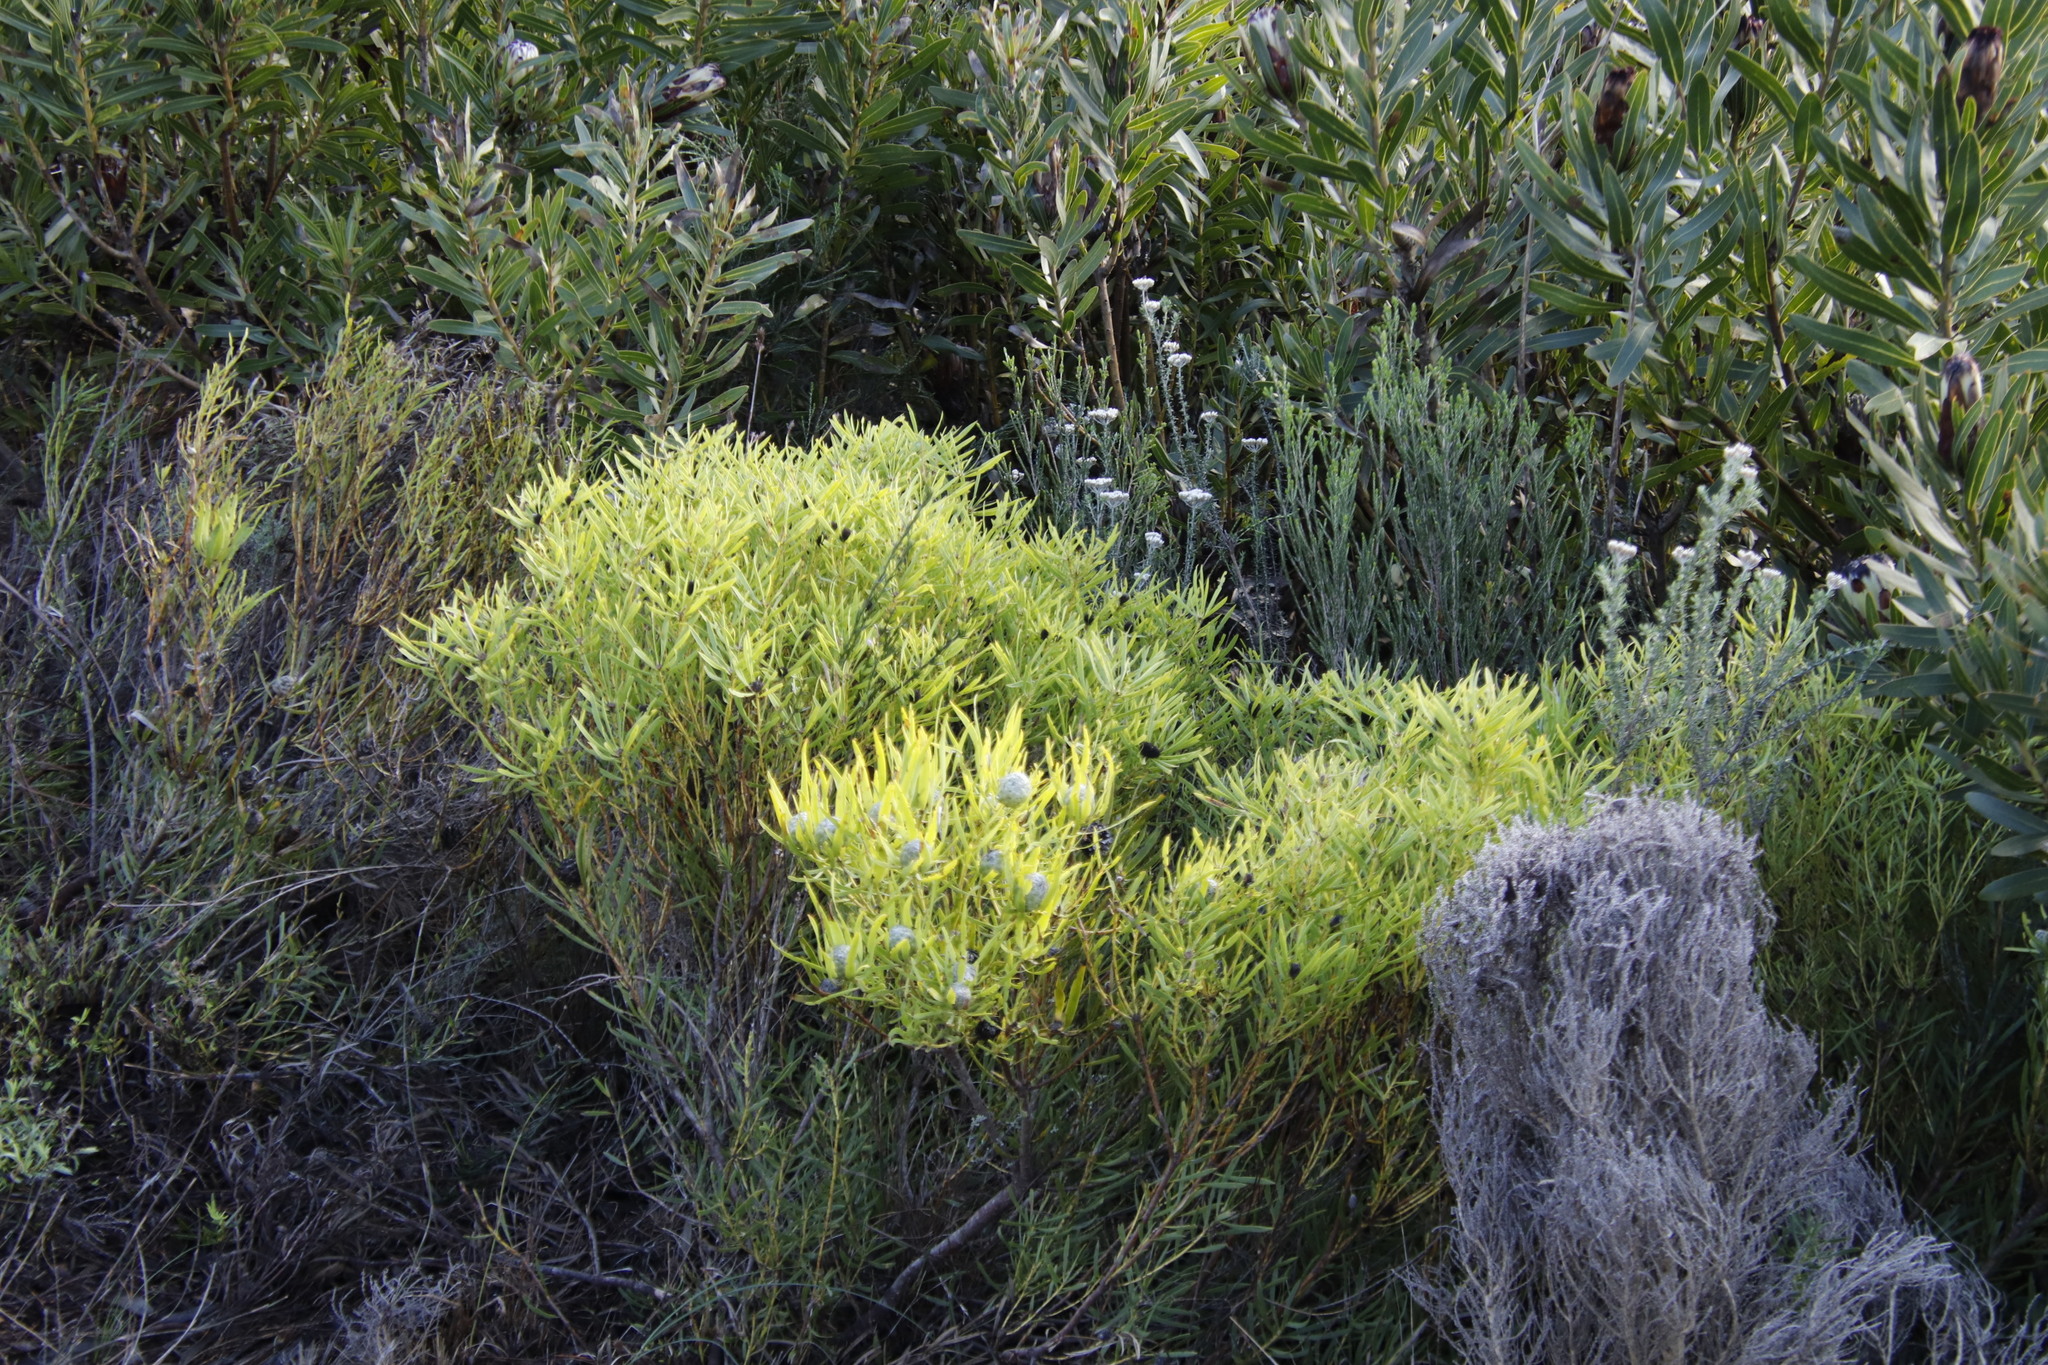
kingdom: Plantae
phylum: Tracheophyta
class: Magnoliopsida
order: Proteales
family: Proteaceae
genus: Leucadendron
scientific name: Leucadendron salignum
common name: Common sunshine conebush
